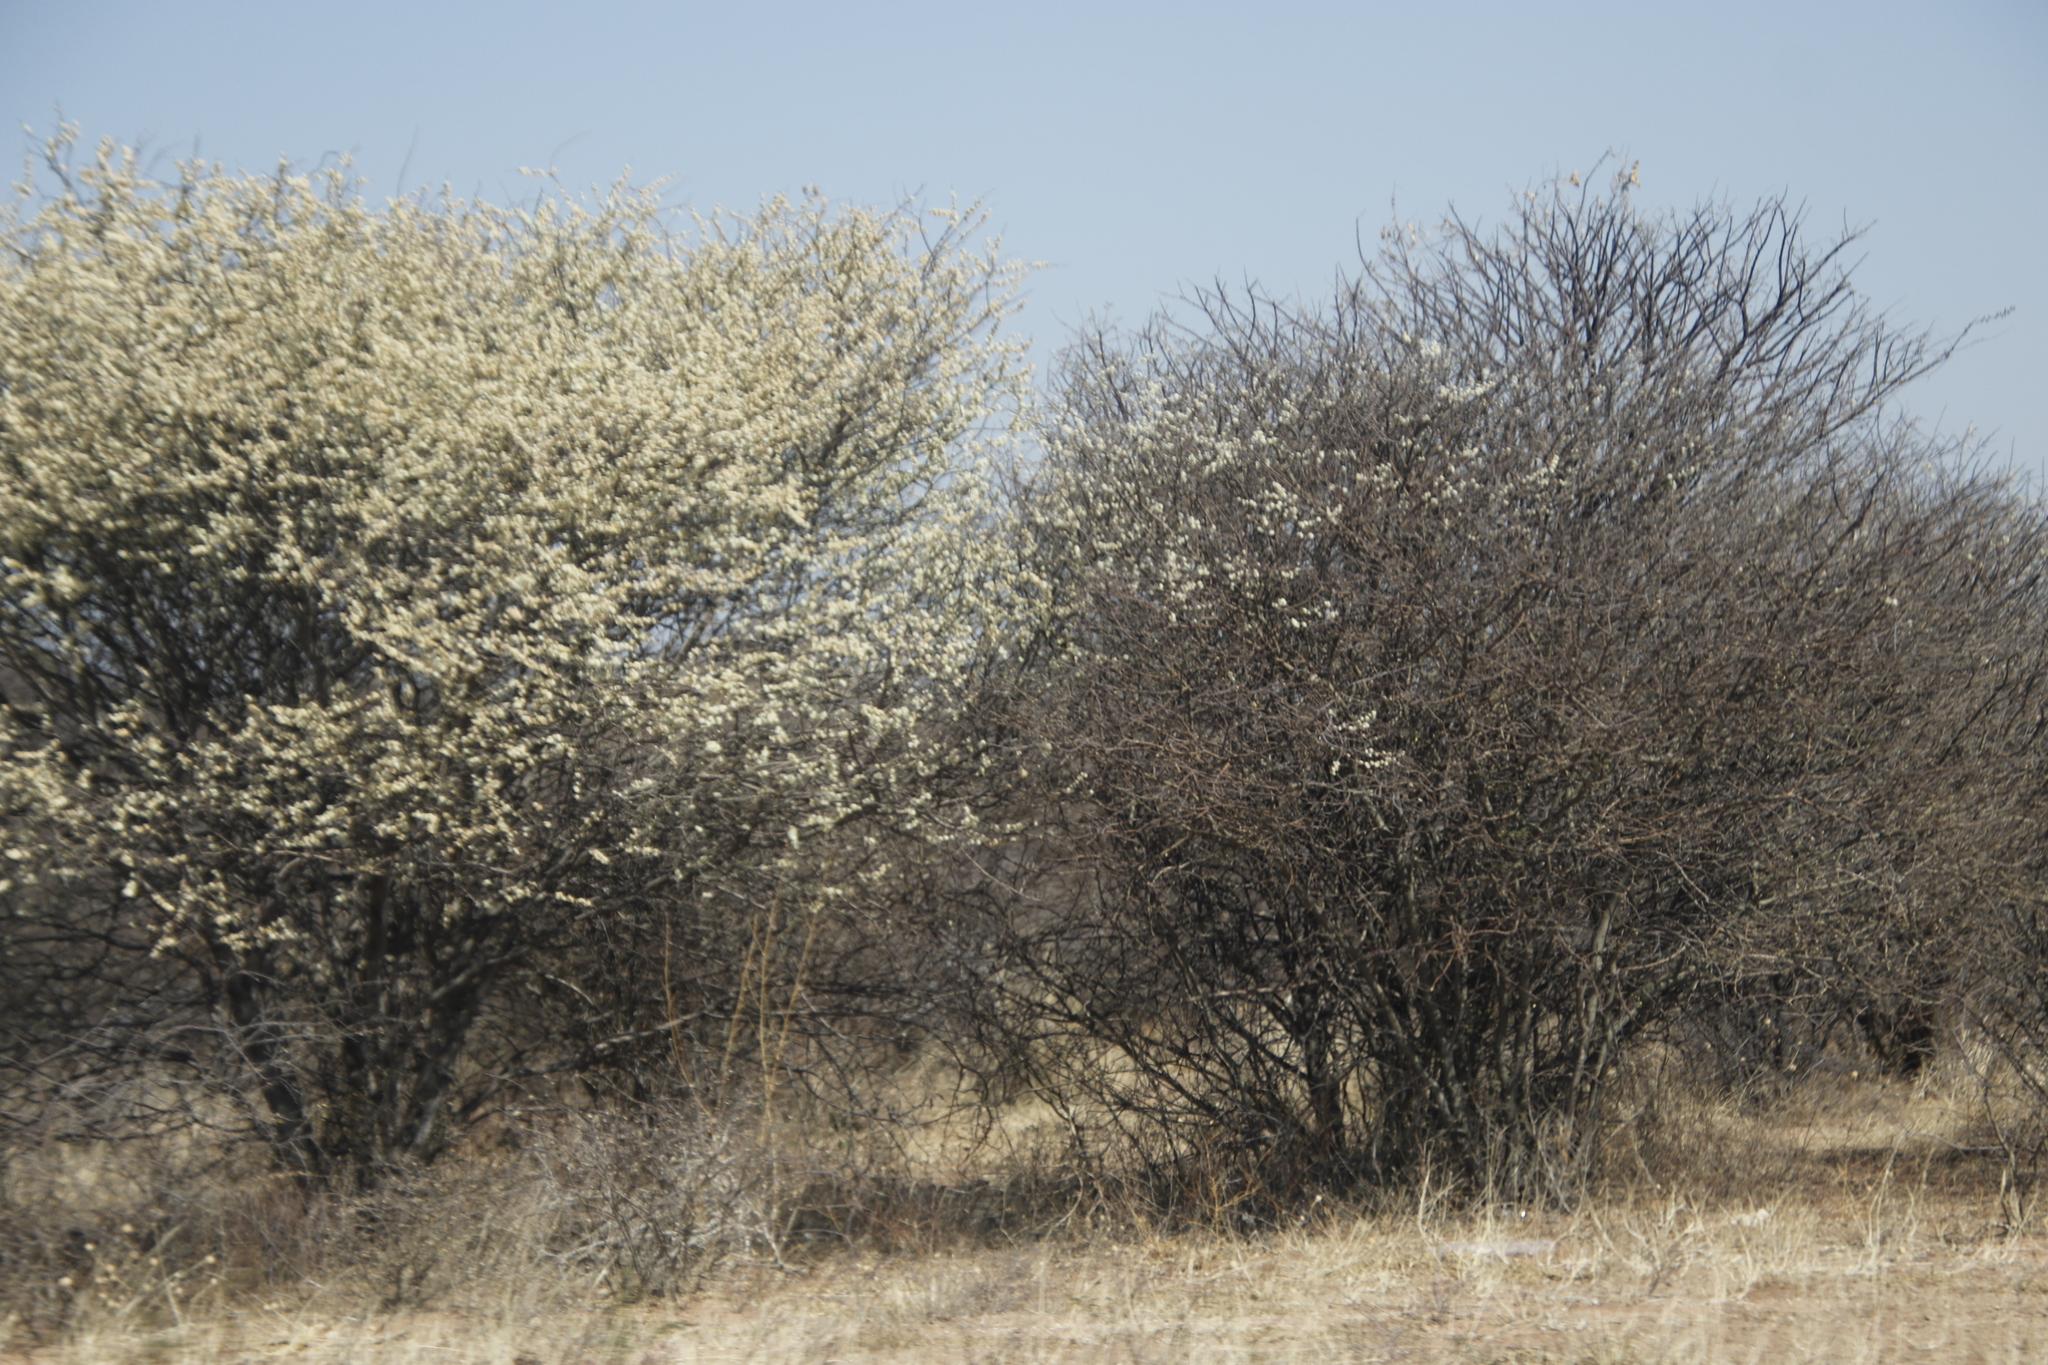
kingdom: Plantae
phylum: Tracheophyta
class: Magnoliopsida
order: Fabales
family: Fabaceae
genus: Senegalia
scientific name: Senegalia mellifera
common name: Hookthorn
